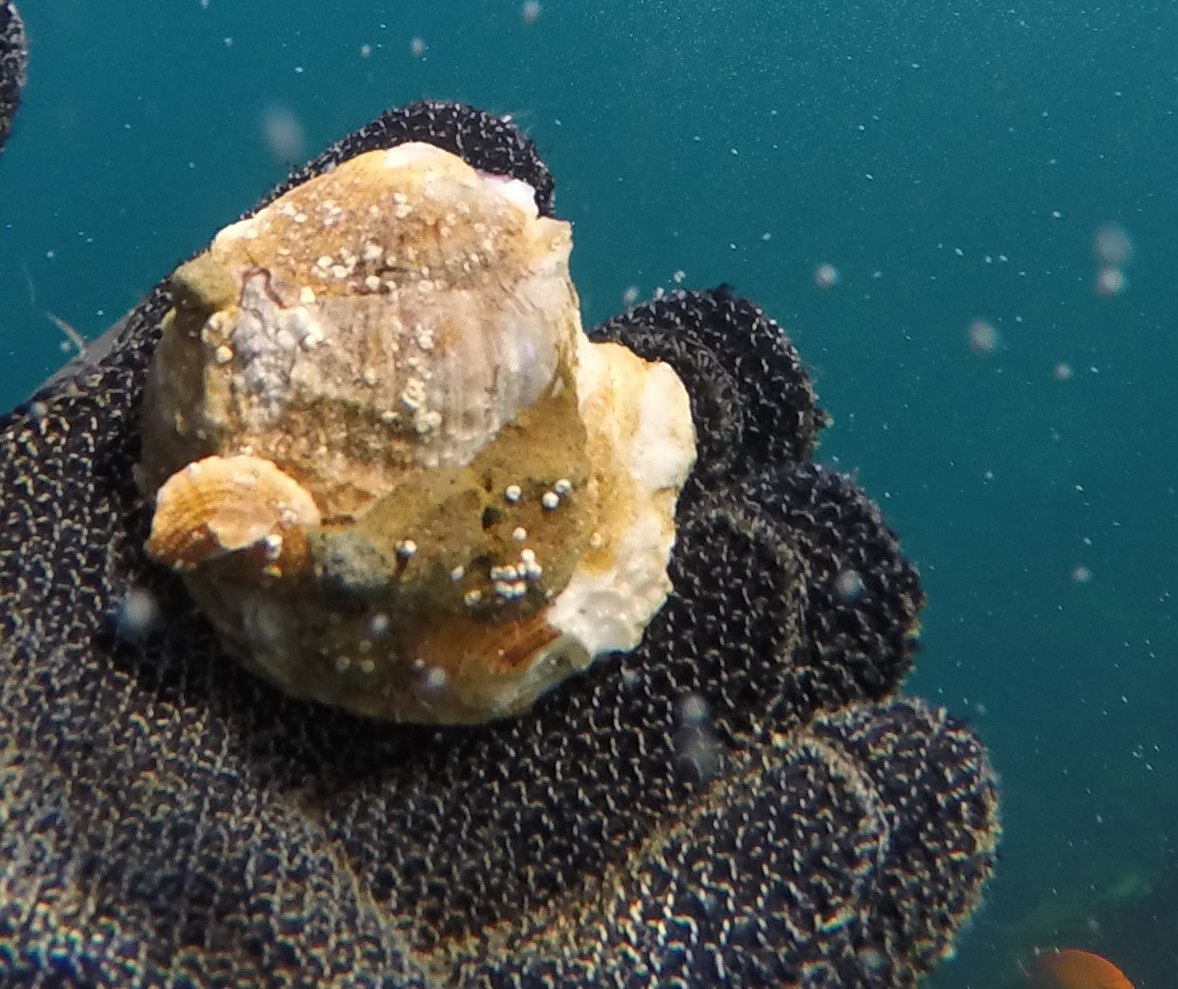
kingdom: Animalia
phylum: Mollusca
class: Bivalvia
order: Pectinida
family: Pectinidae
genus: Crassadoma
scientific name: Crassadoma gigantea
